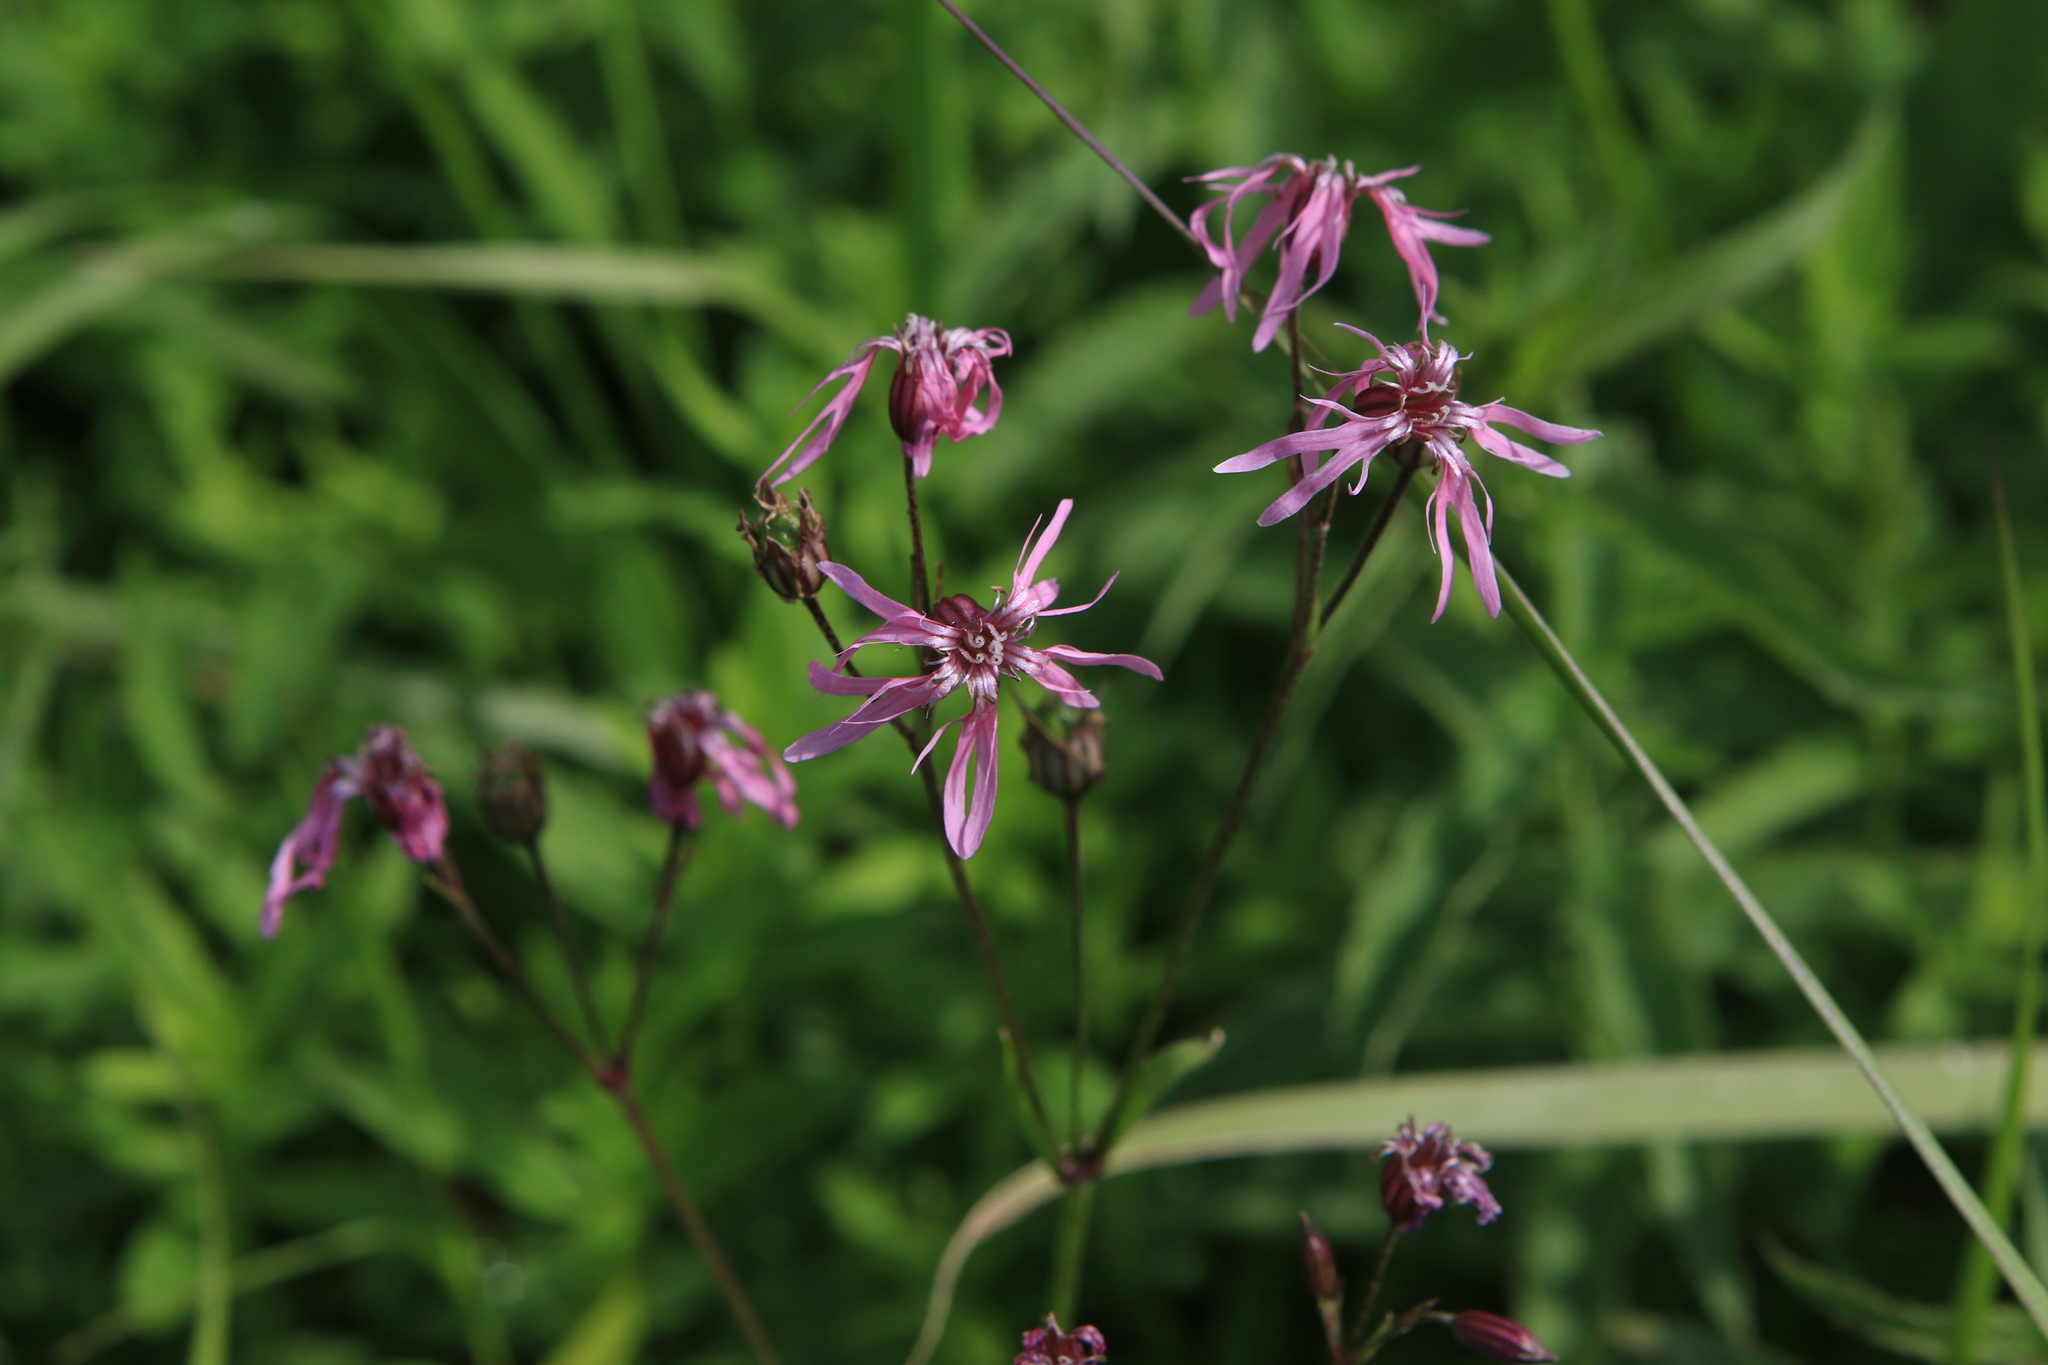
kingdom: Plantae
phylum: Tracheophyta
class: Magnoliopsida
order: Caryophyllales
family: Caryophyllaceae
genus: Silene
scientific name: Silene flos-cuculi
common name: Ragged-robin
